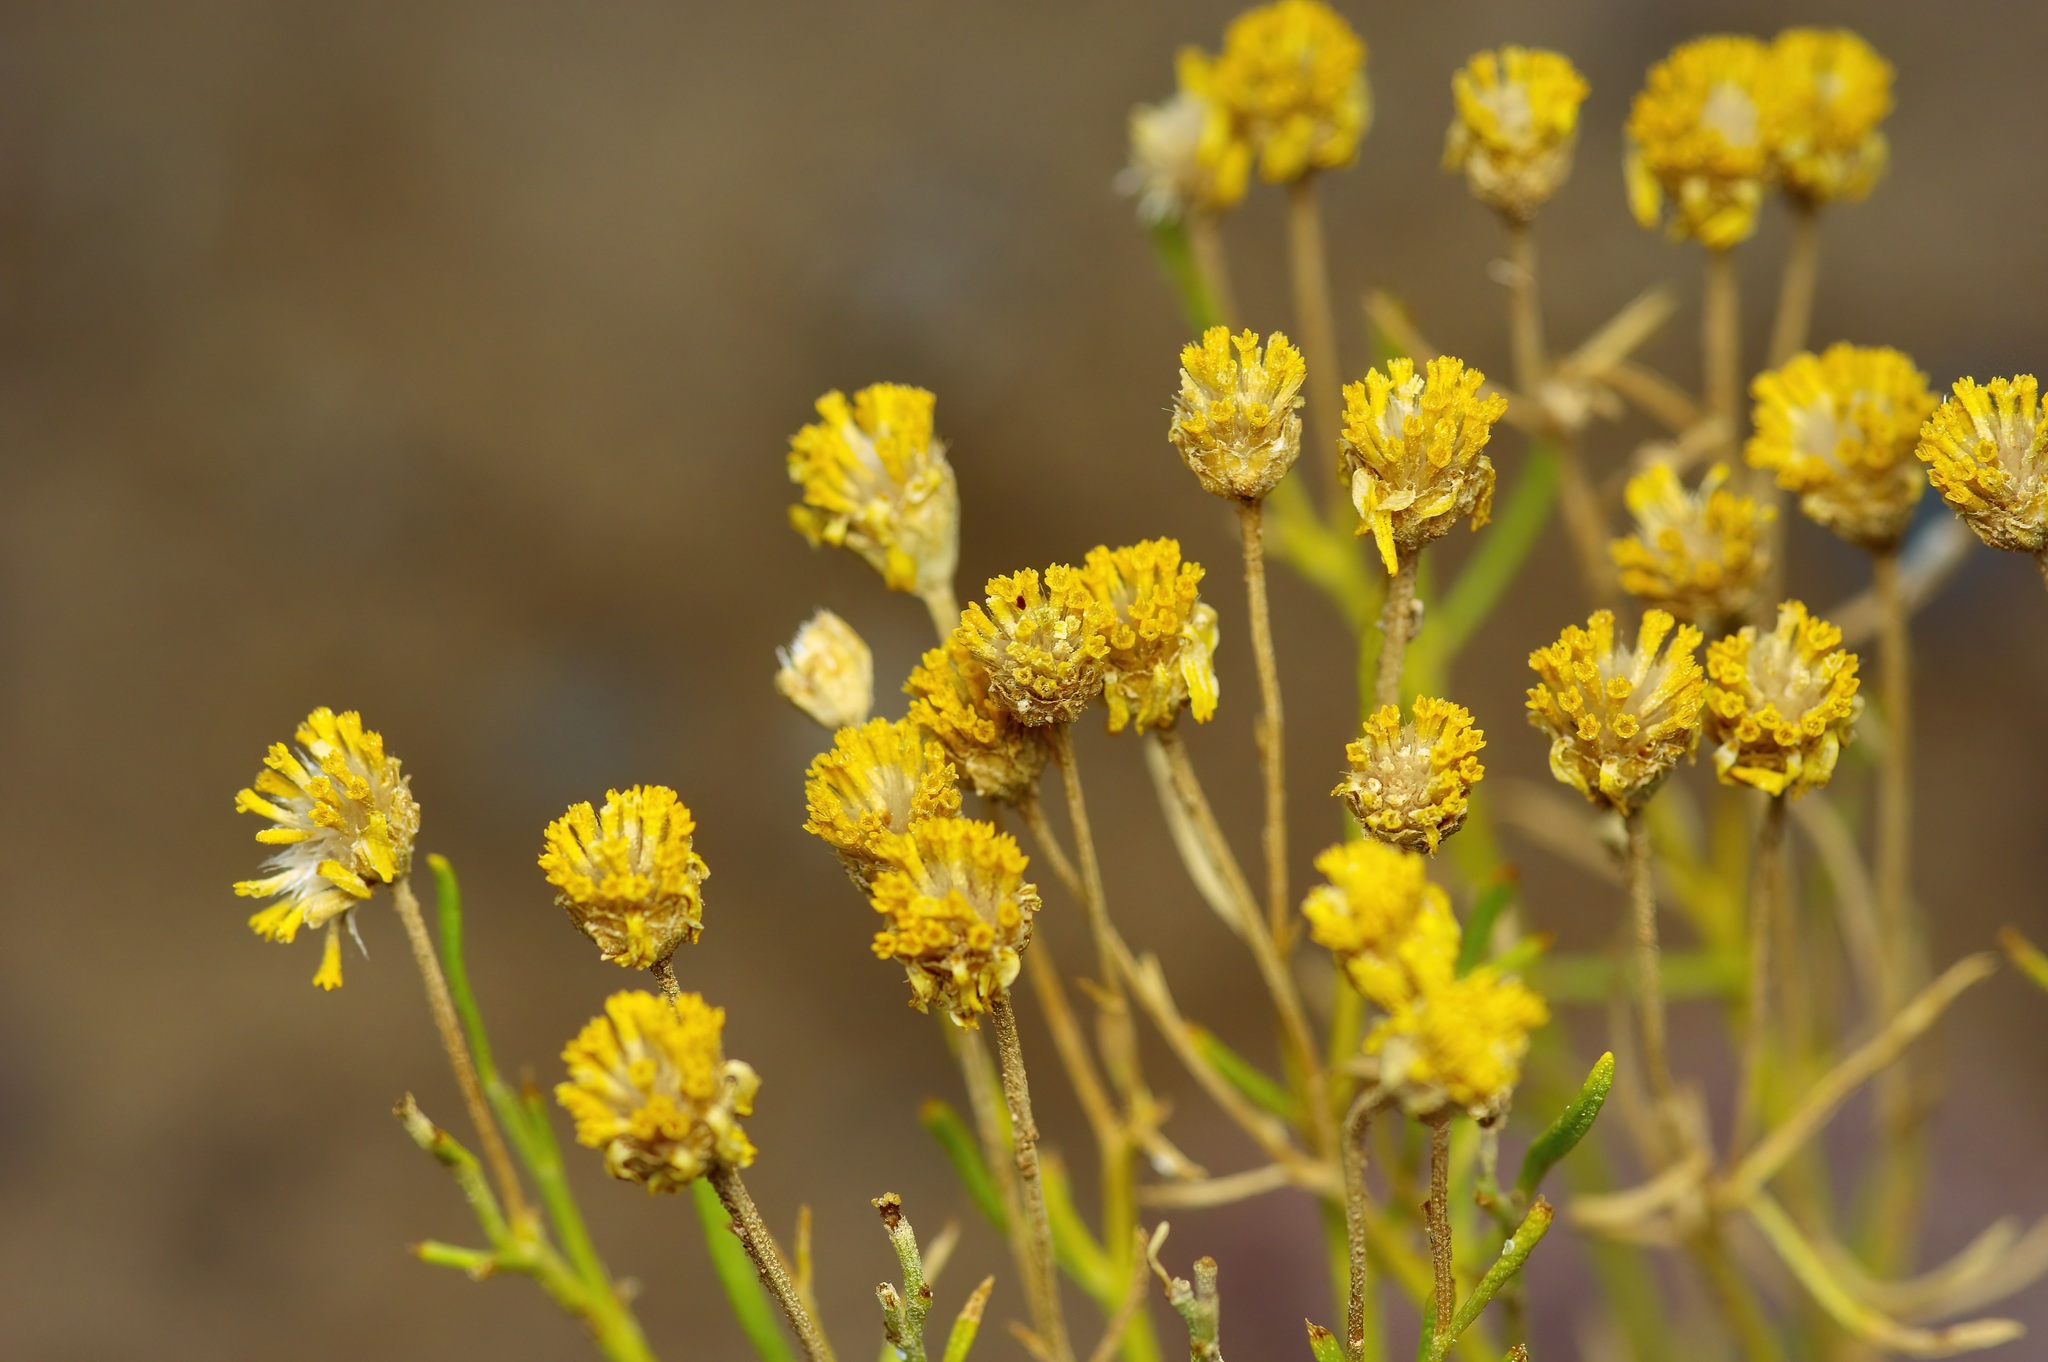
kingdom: Plantae
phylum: Tracheophyta
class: Magnoliopsida
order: Asterales
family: Asteraceae
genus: Hymenoxys
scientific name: Hymenoxys richardsonii
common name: Pingue rubberweed
